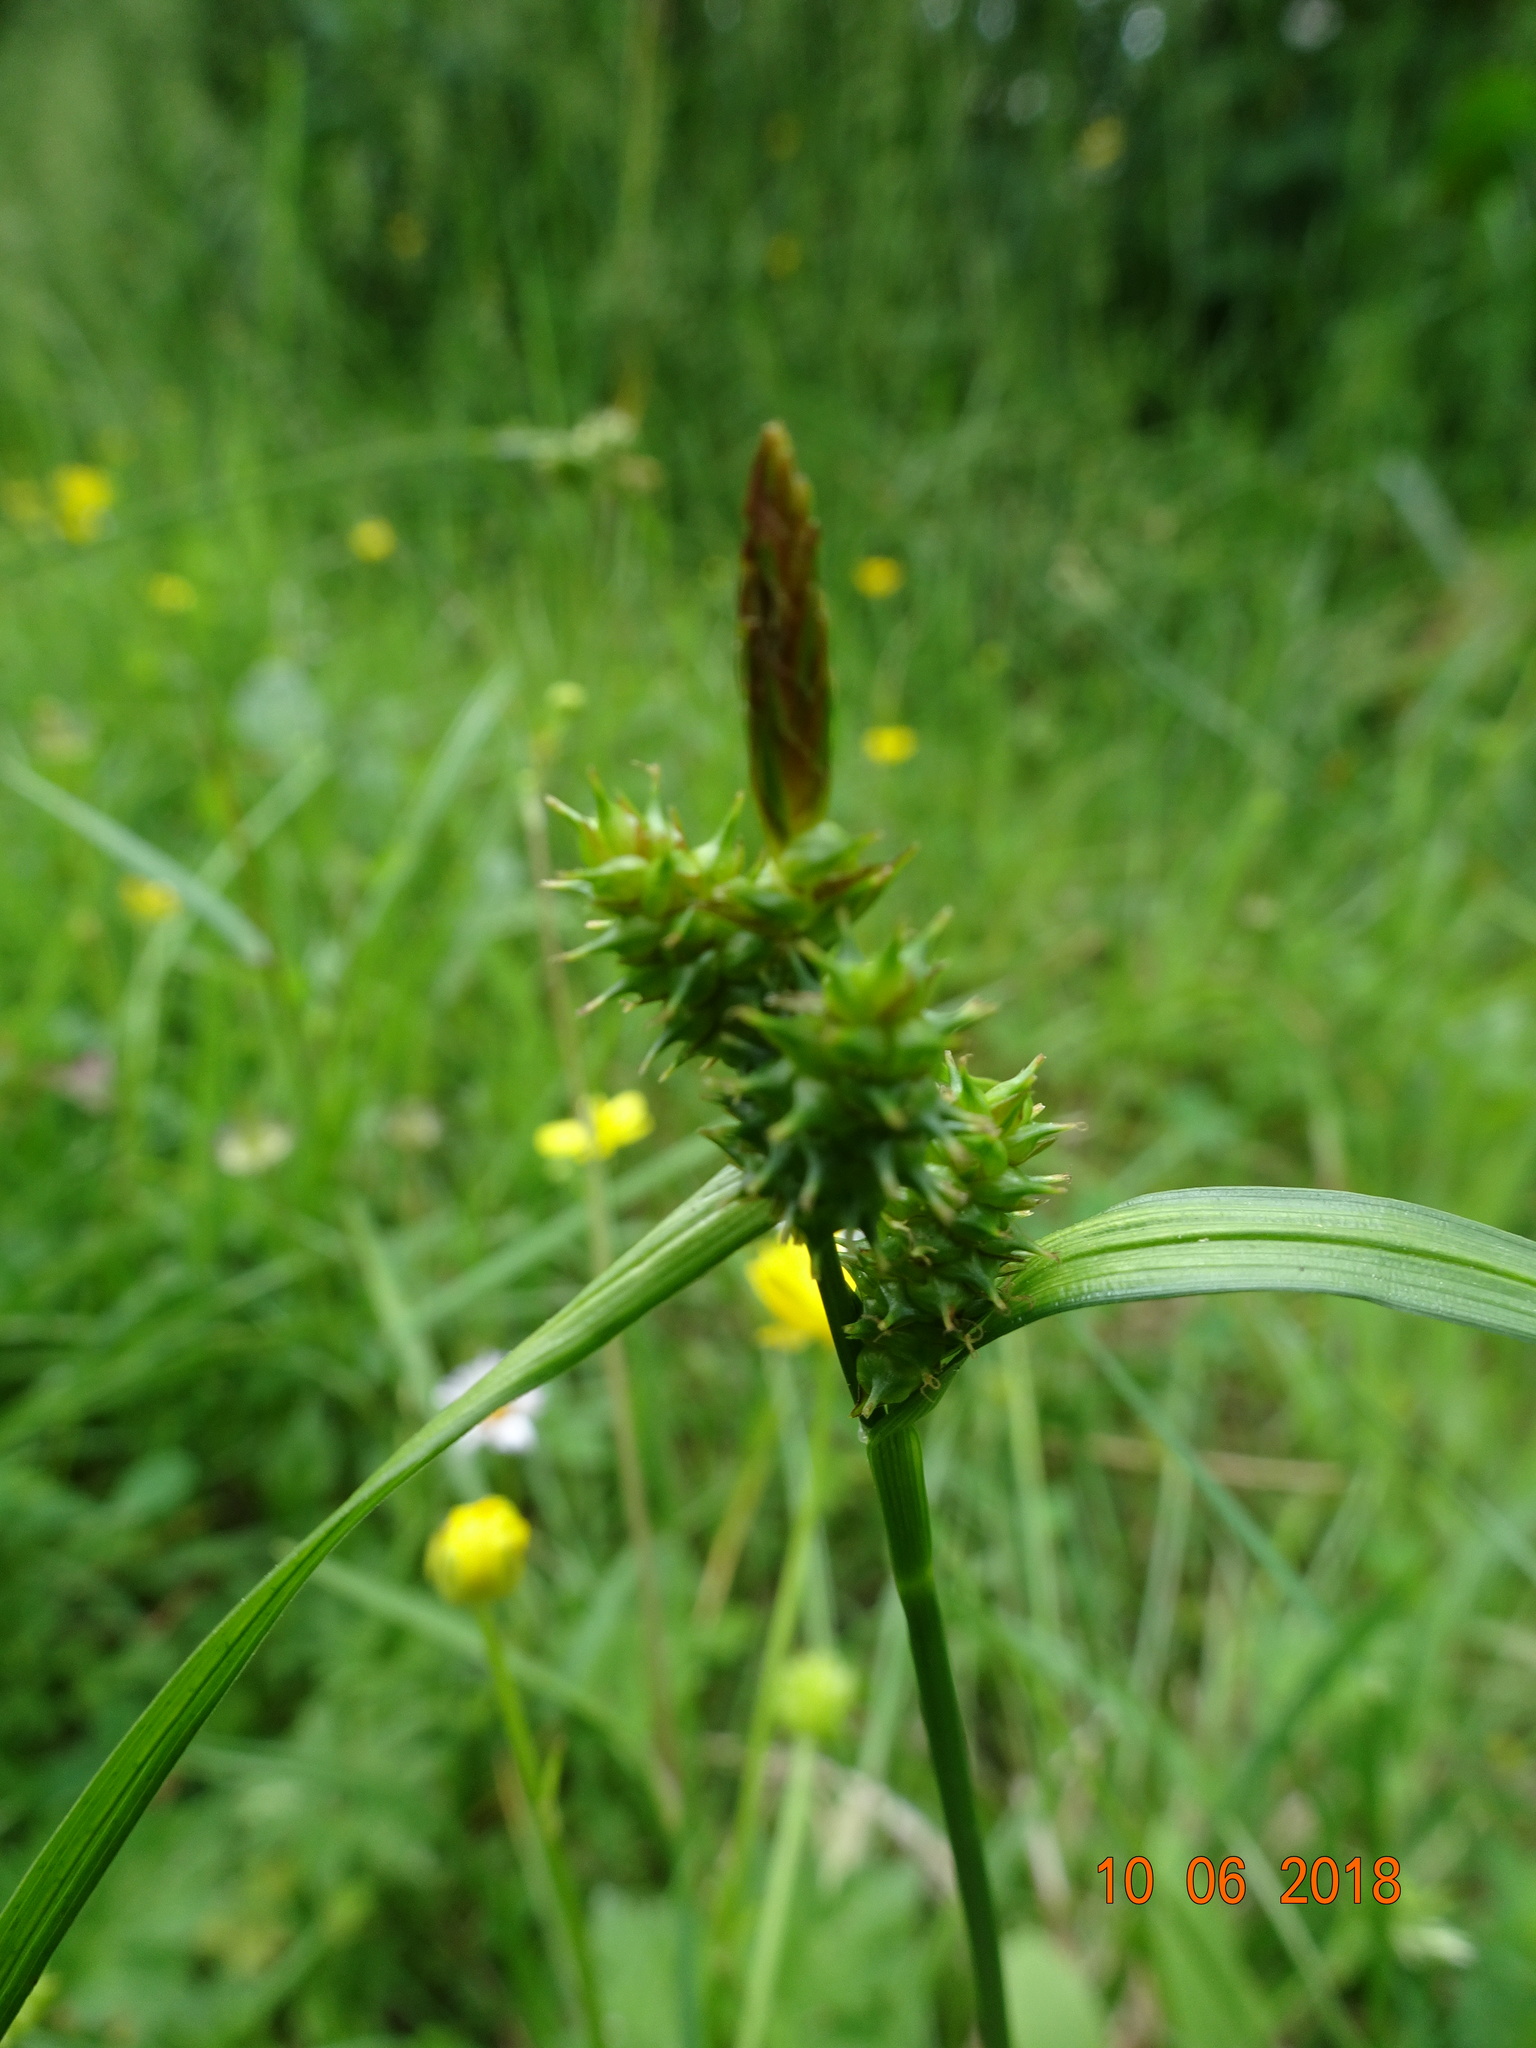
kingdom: Plantae
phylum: Tracheophyta
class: Liliopsida
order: Poales
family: Cyperaceae
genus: Carex
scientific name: Carex
